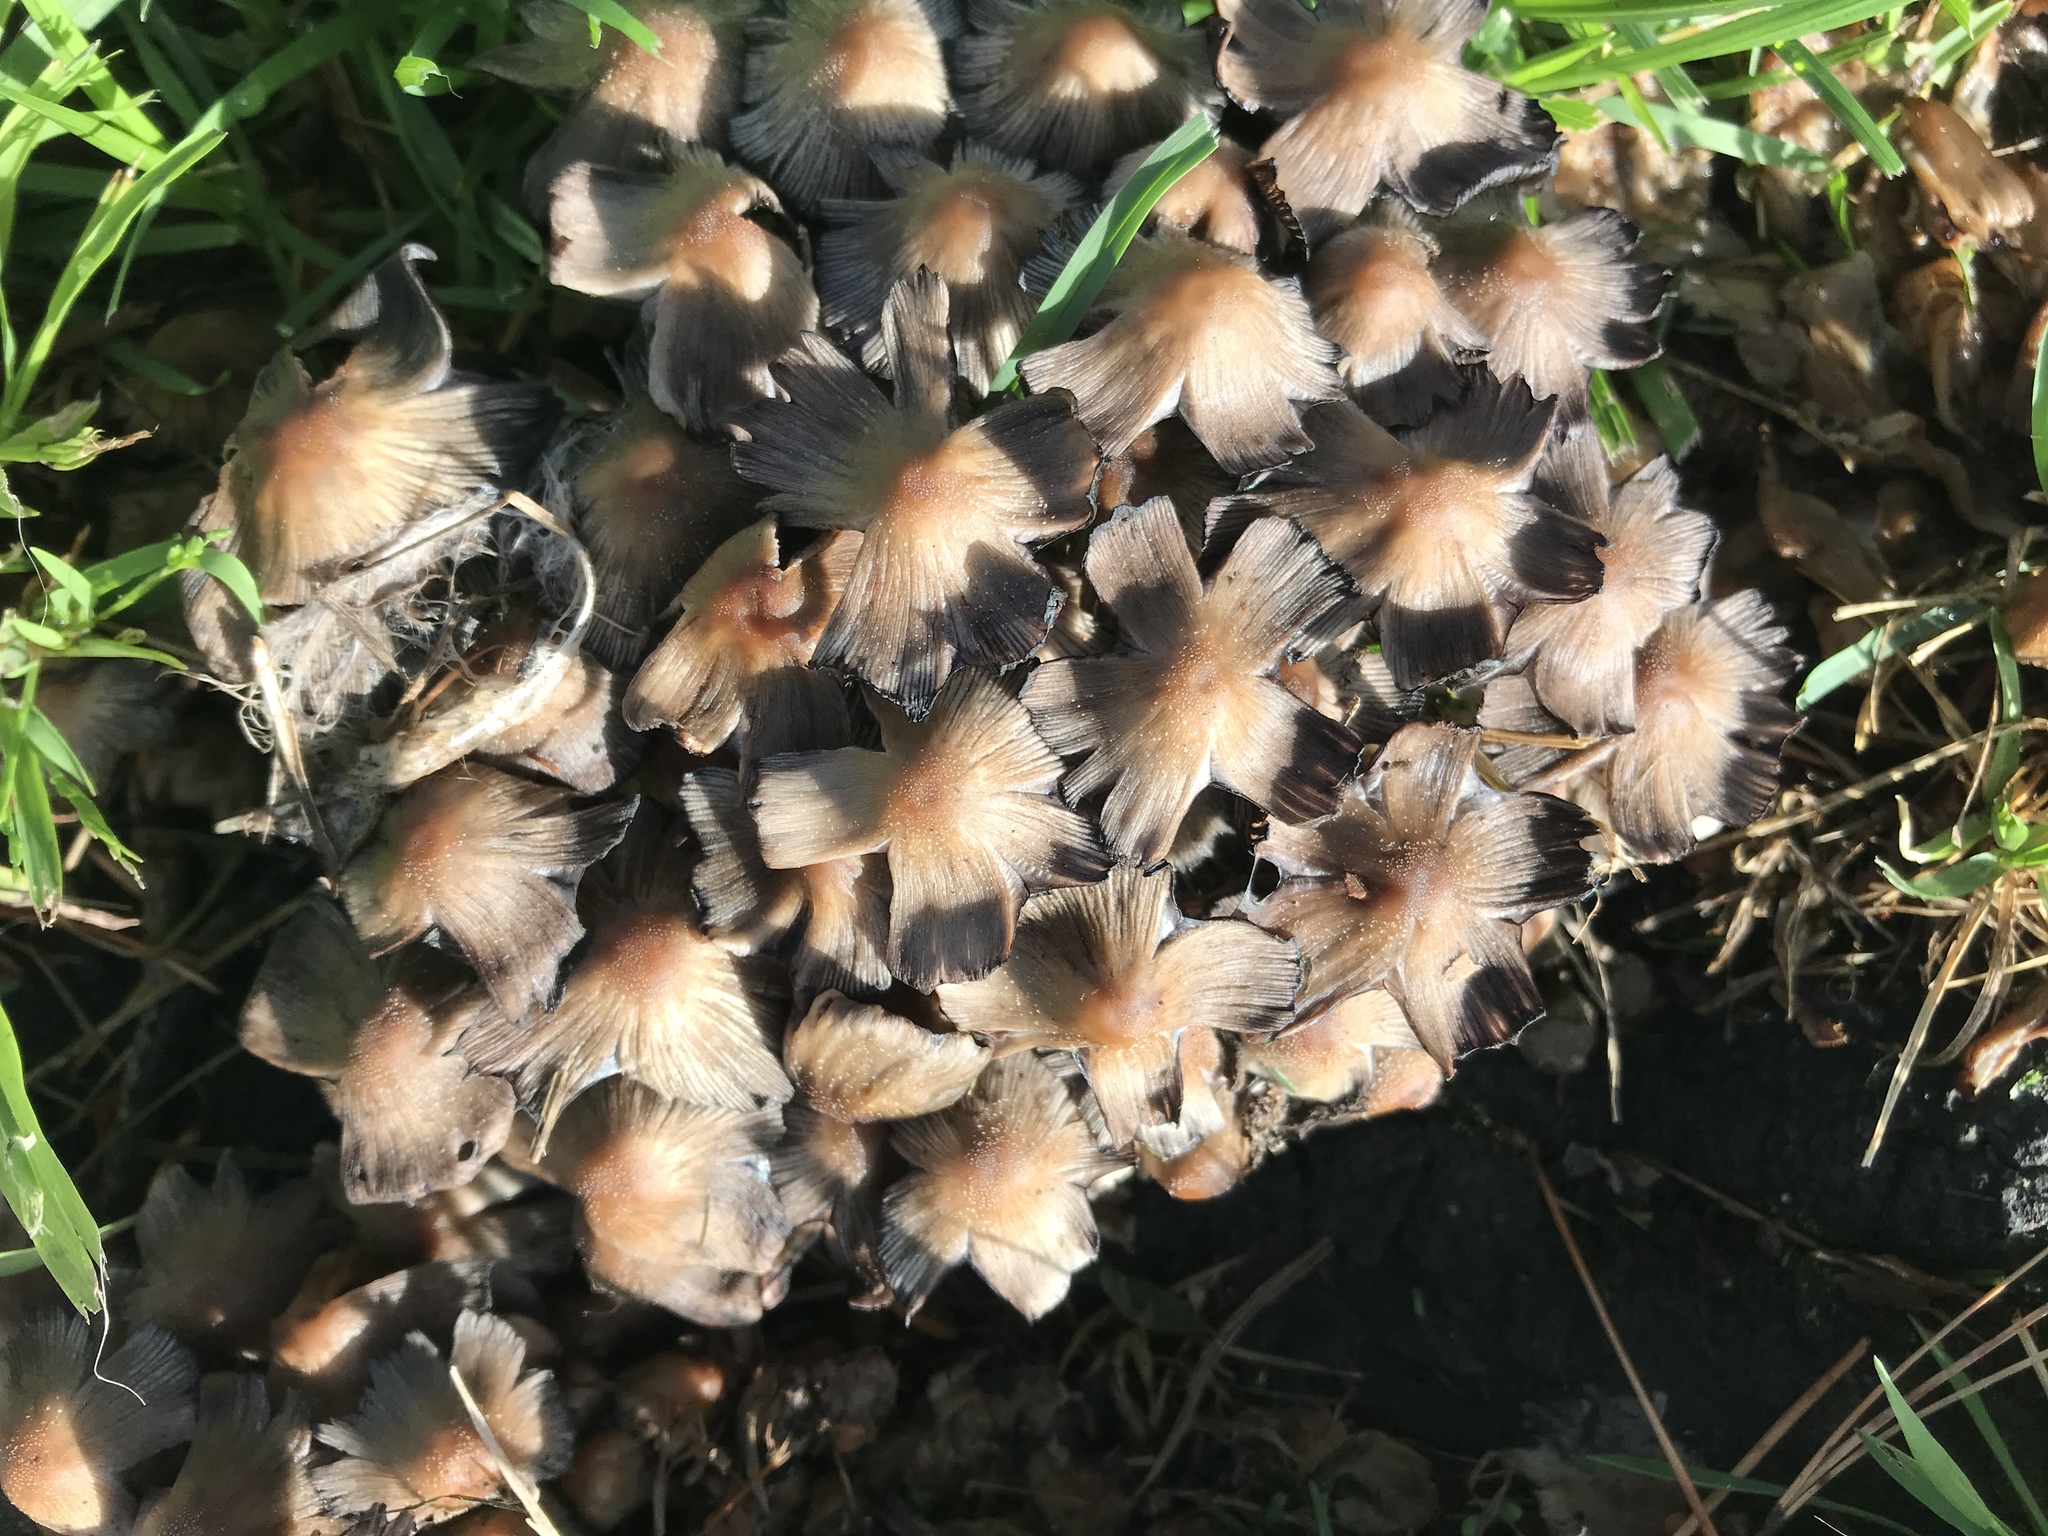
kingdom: Fungi
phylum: Basidiomycota
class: Agaricomycetes
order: Agaricales
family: Psathyrellaceae
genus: Coprinellus
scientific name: Coprinellus micaceus
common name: Glistening ink-cap
